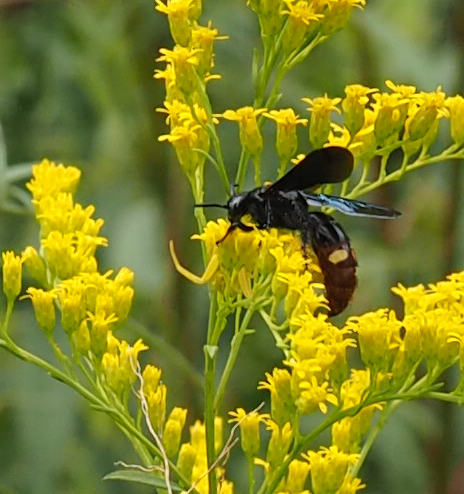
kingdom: Animalia
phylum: Arthropoda
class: Insecta
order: Hymenoptera
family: Scoliidae
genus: Scolia
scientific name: Scolia dubia
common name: Blue-winged scoliid wasp
